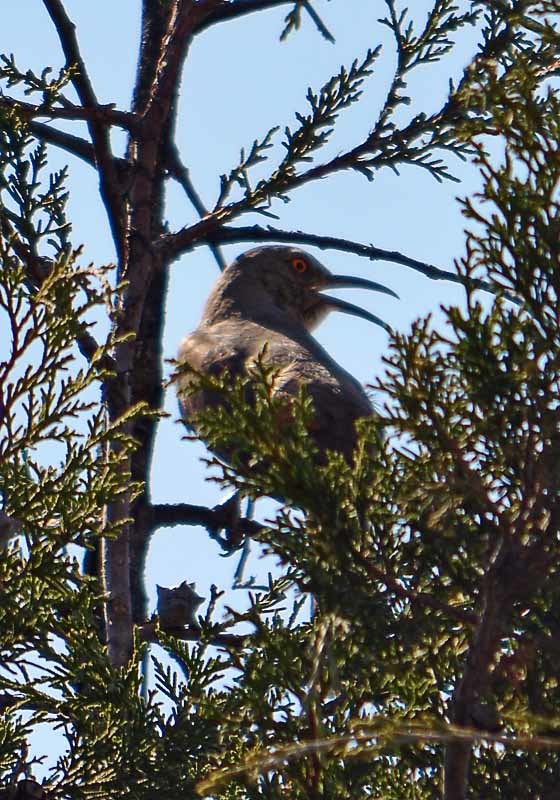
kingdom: Animalia
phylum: Chordata
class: Aves
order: Passeriformes
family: Mimidae
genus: Toxostoma
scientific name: Toxostoma curvirostre
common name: Curve-billed thrasher
